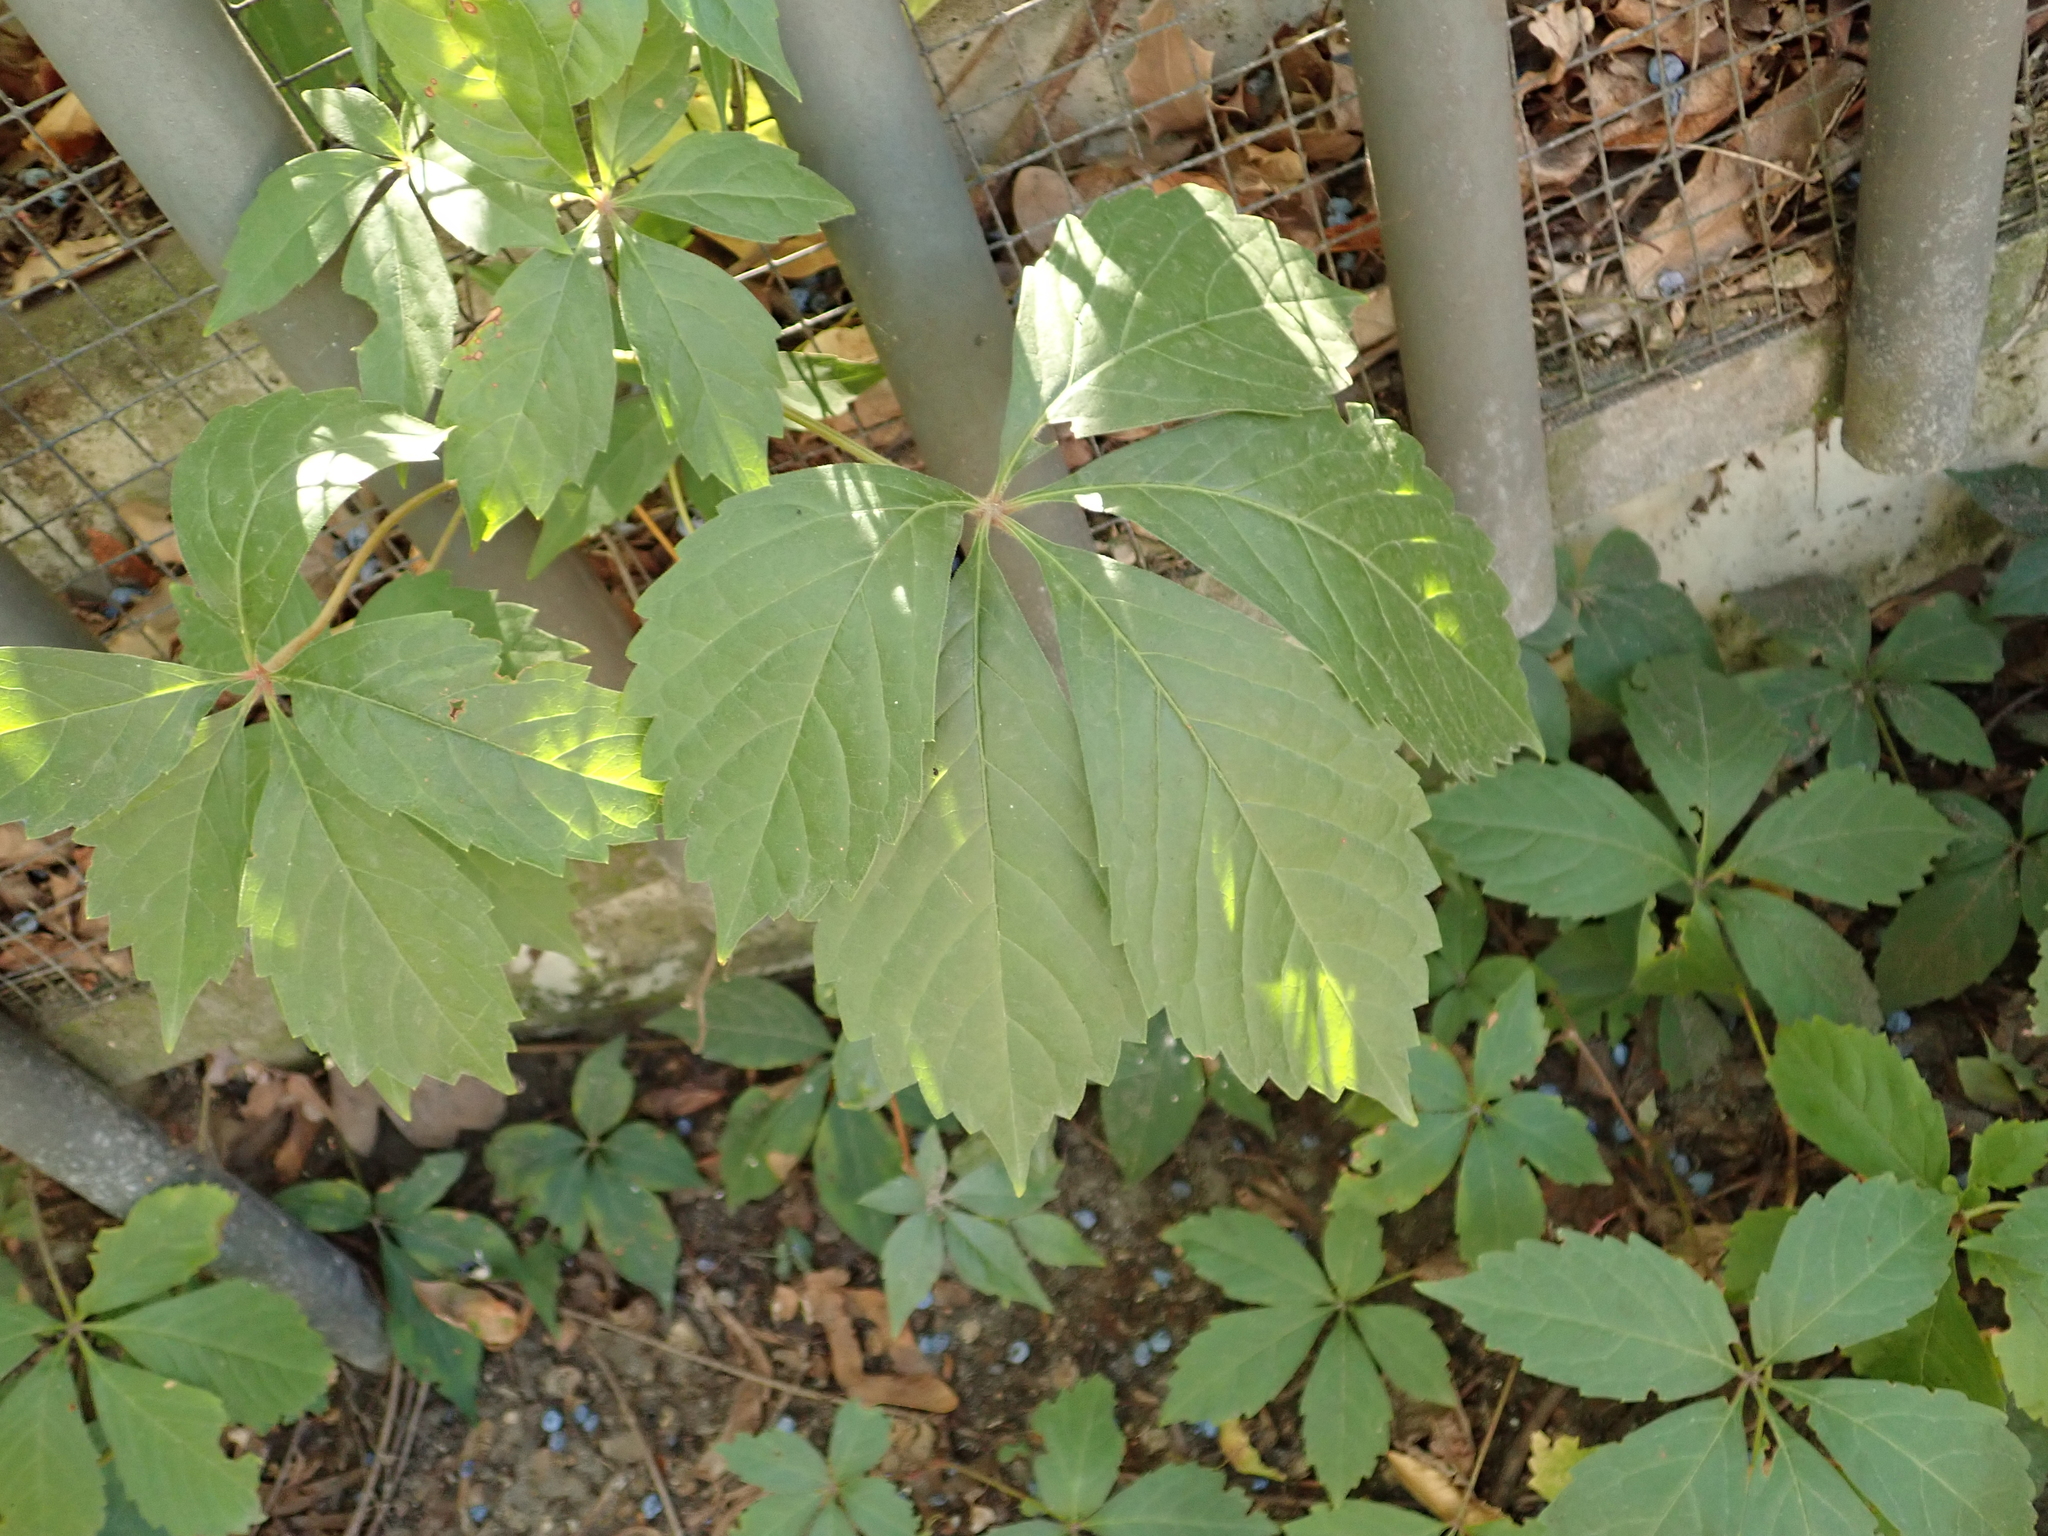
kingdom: Plantae
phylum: Tracheophyta
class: Magnoliopsida
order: Vitales
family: Vitaceae
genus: Parthenocissus
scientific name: Parthenocissus quinquefolia
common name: Virginia-creeper
